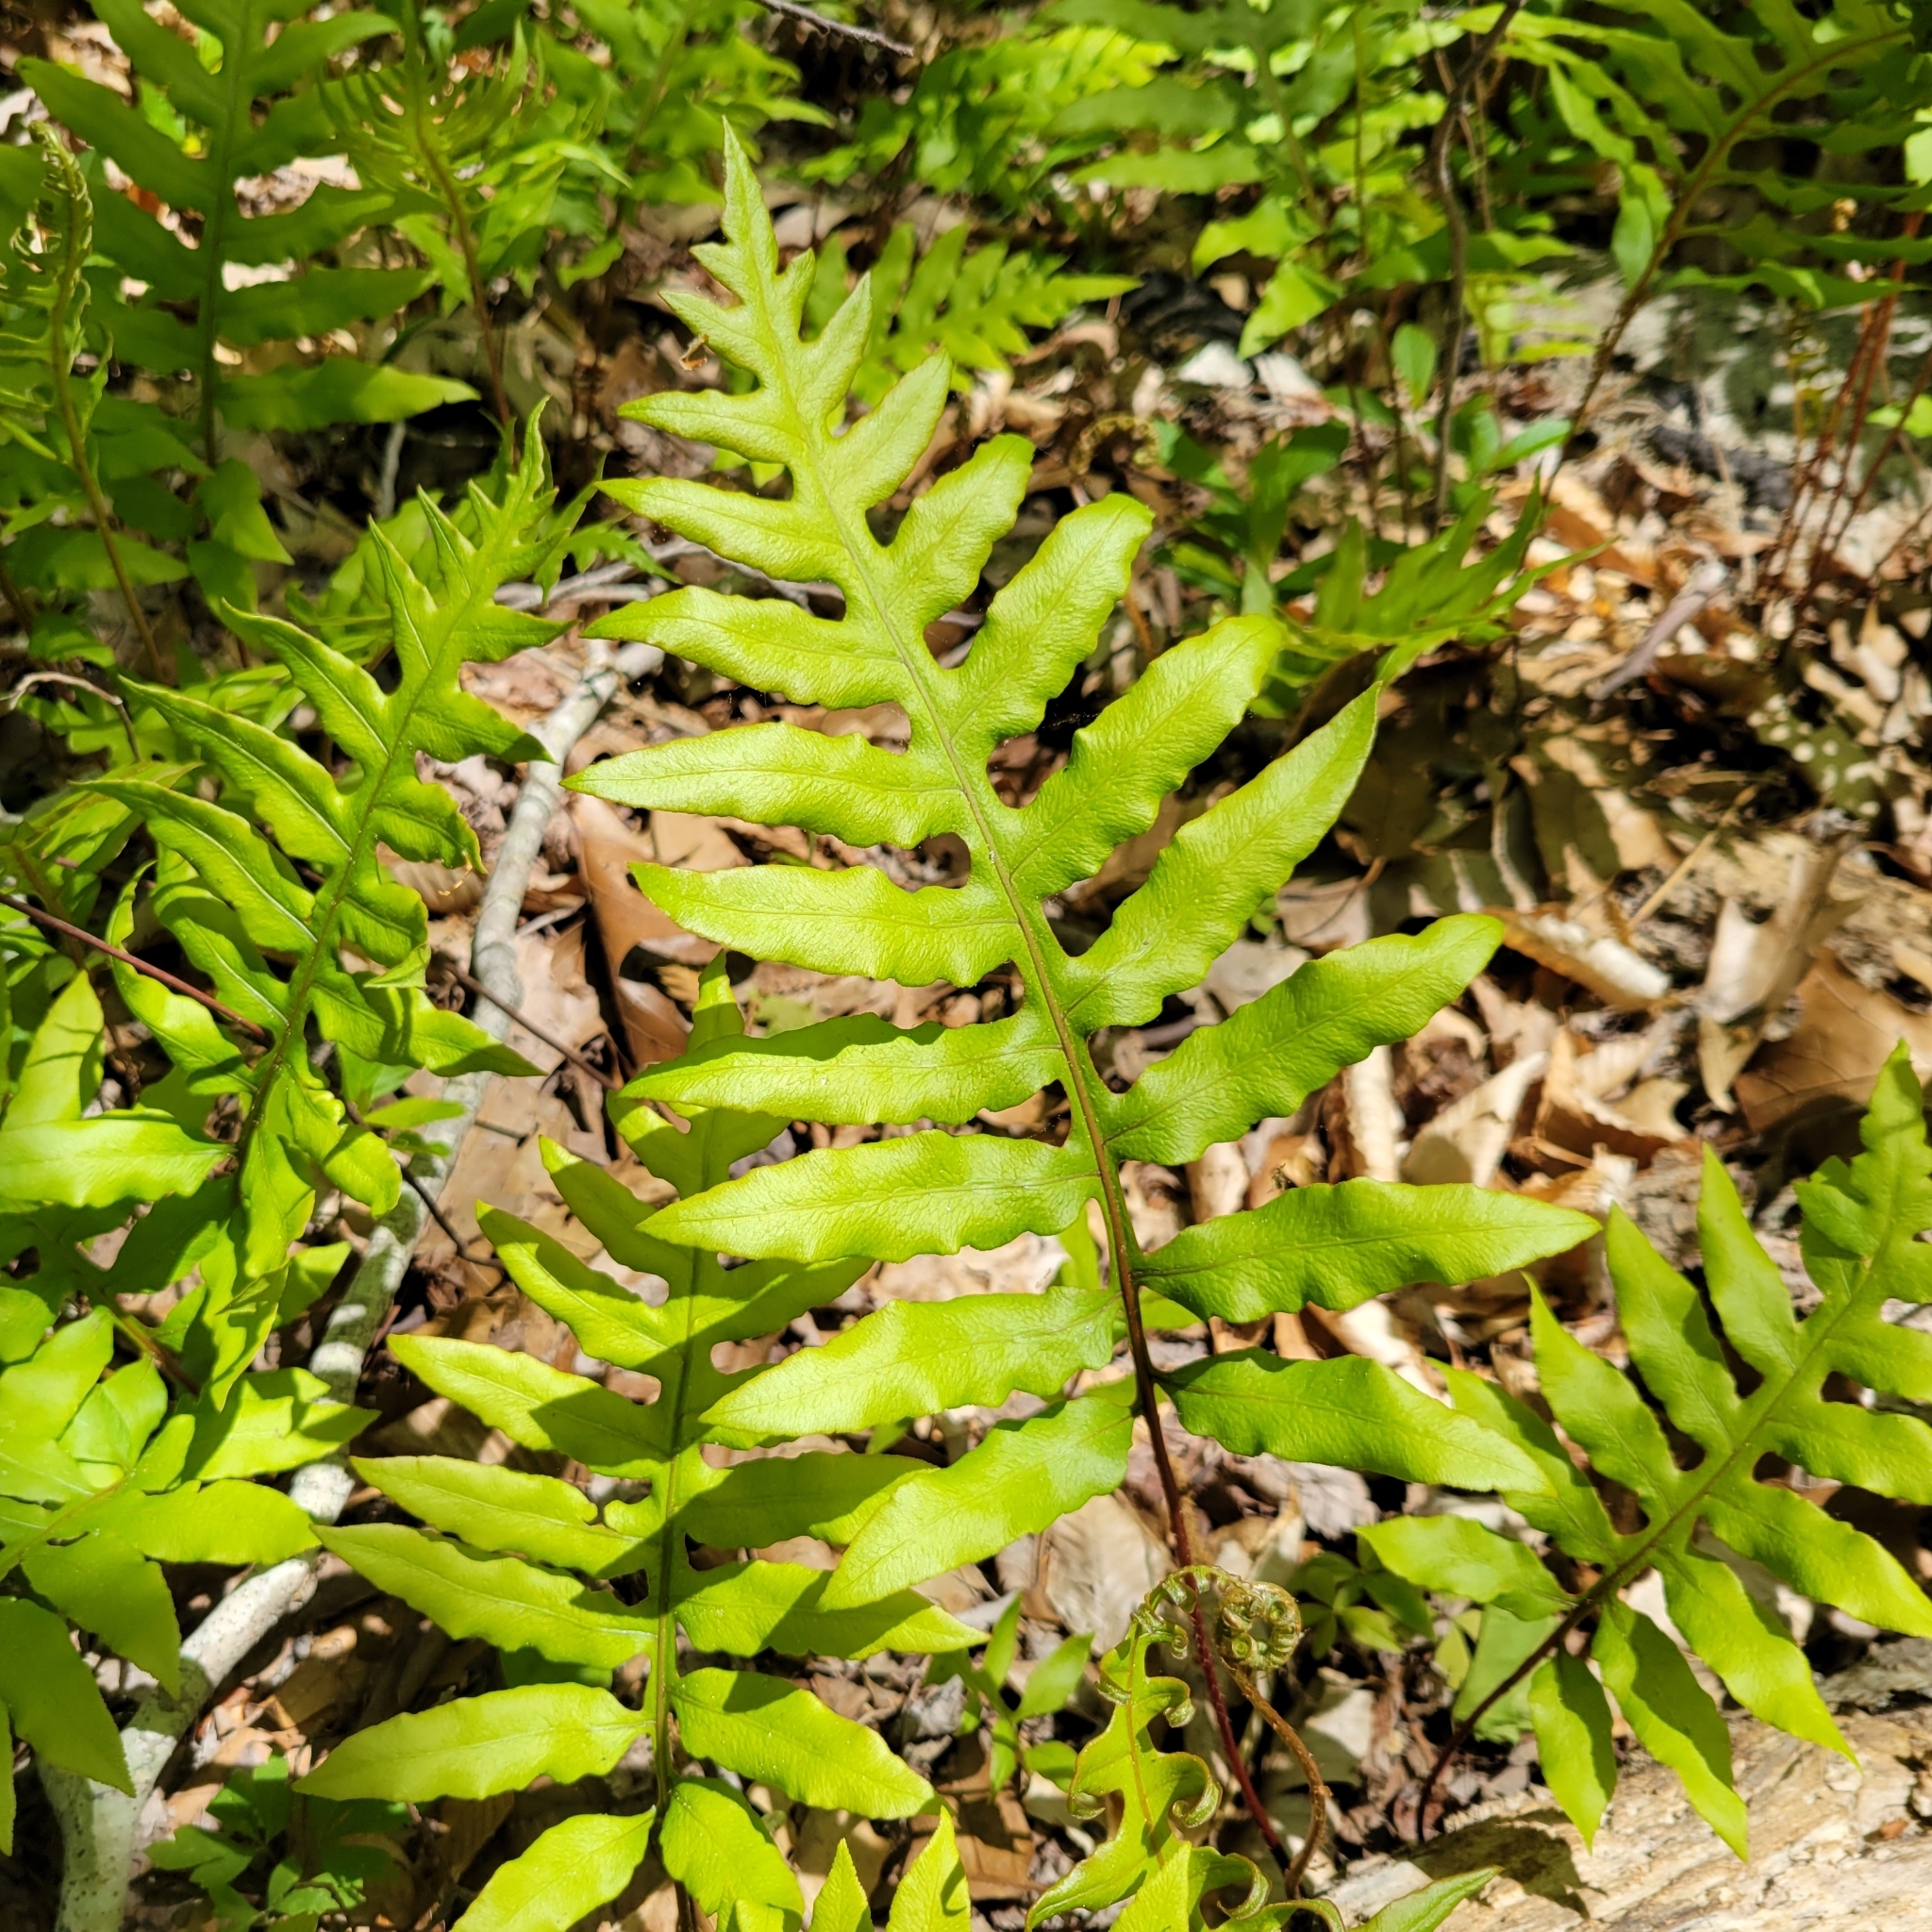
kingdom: Plantae
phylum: Tracheophyta
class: Polypodiopsida
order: Polypodiales
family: Blechnaceae
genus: Lorinseria
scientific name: Lorinseria areolata
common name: Dwarf chain fern
